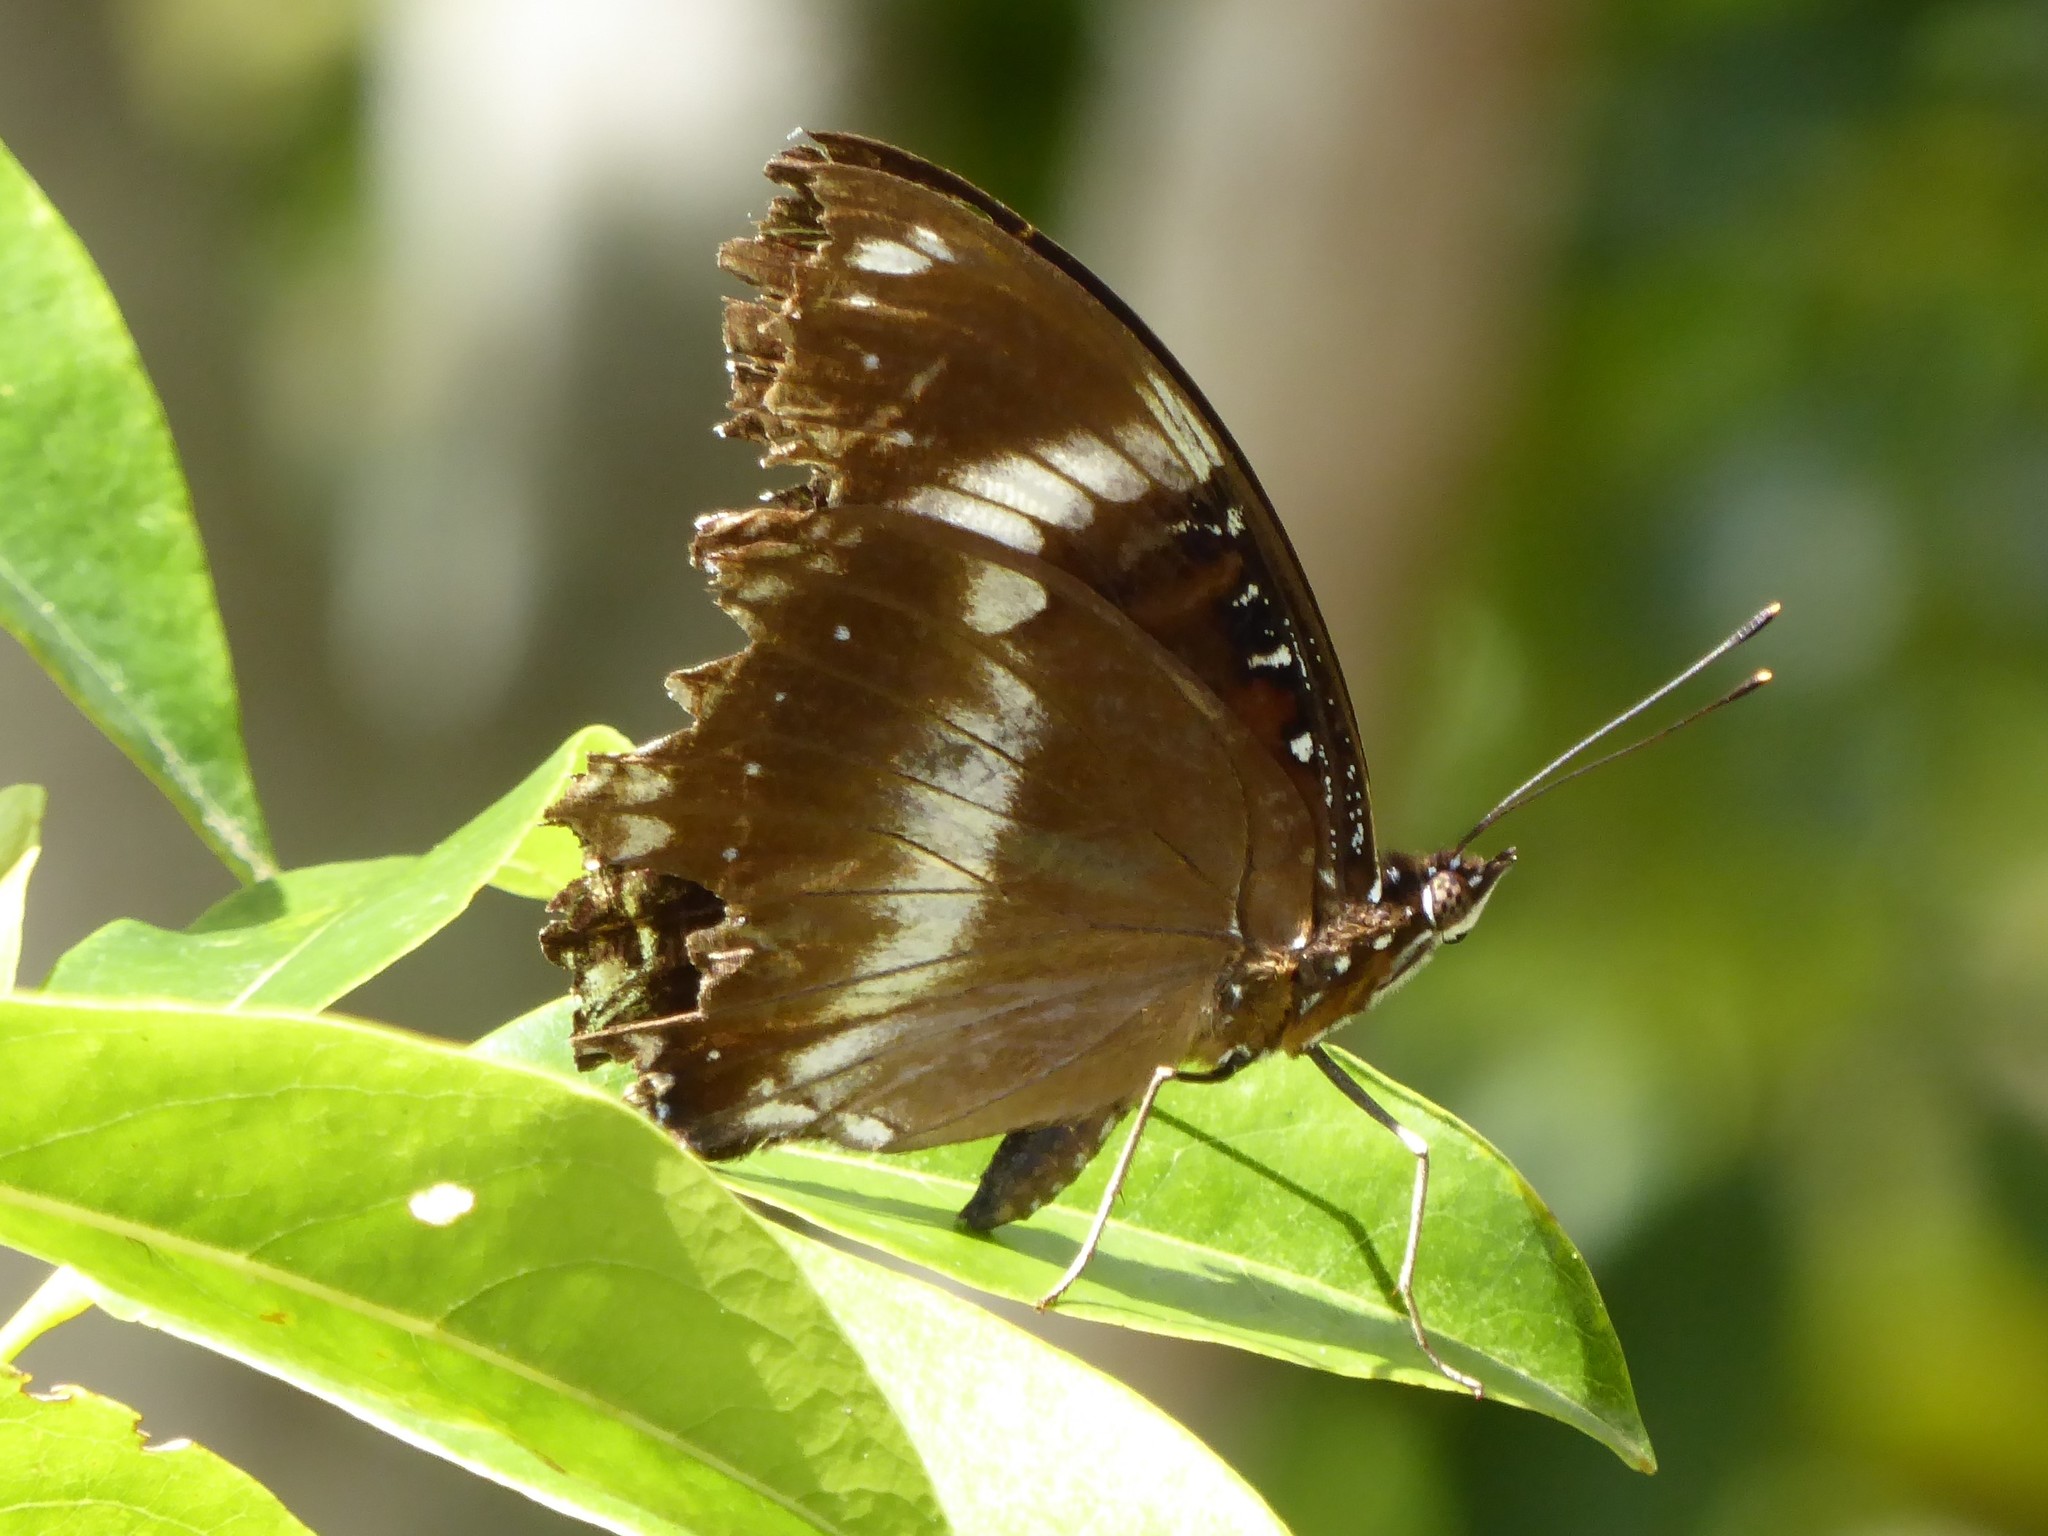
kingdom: Animalia
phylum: Arthropoda
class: Insecta
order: Lepidoptera
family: Nymphalidae
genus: Hypolimnas
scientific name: Hypolimnas bolina
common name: Great eggfly
